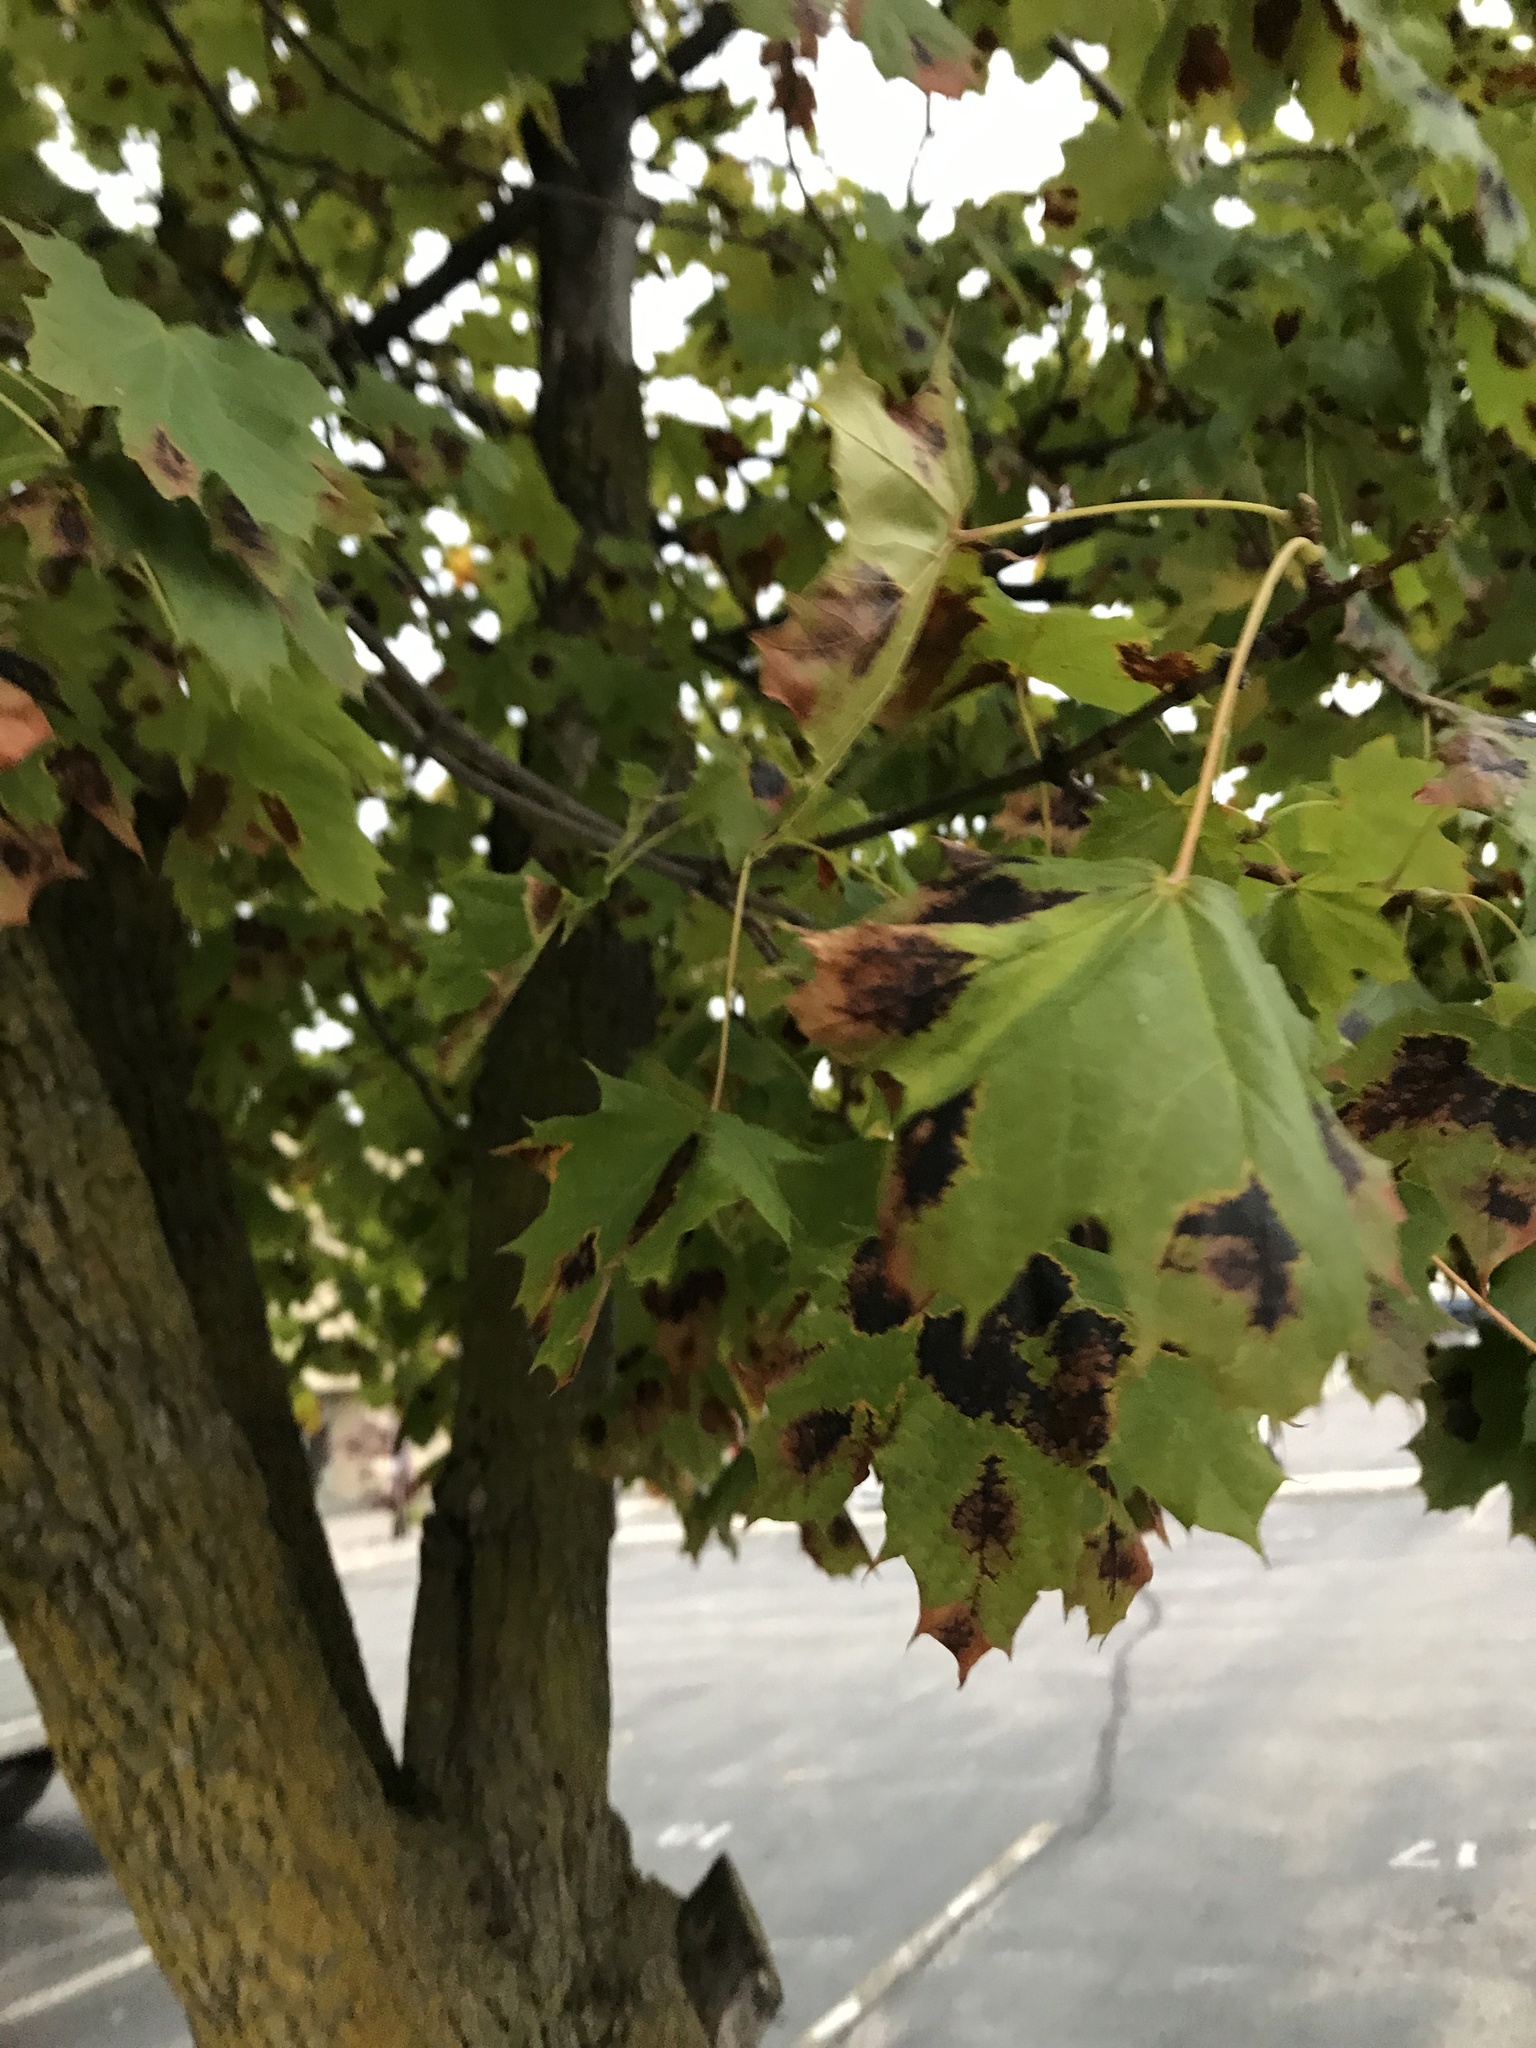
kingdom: Fungi
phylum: Ascomycota
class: Leotiomycetes
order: Rhytismatales
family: Rhytismataceae
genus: Rhytisma
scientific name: Rhytisma acerinum
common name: European tar spot
